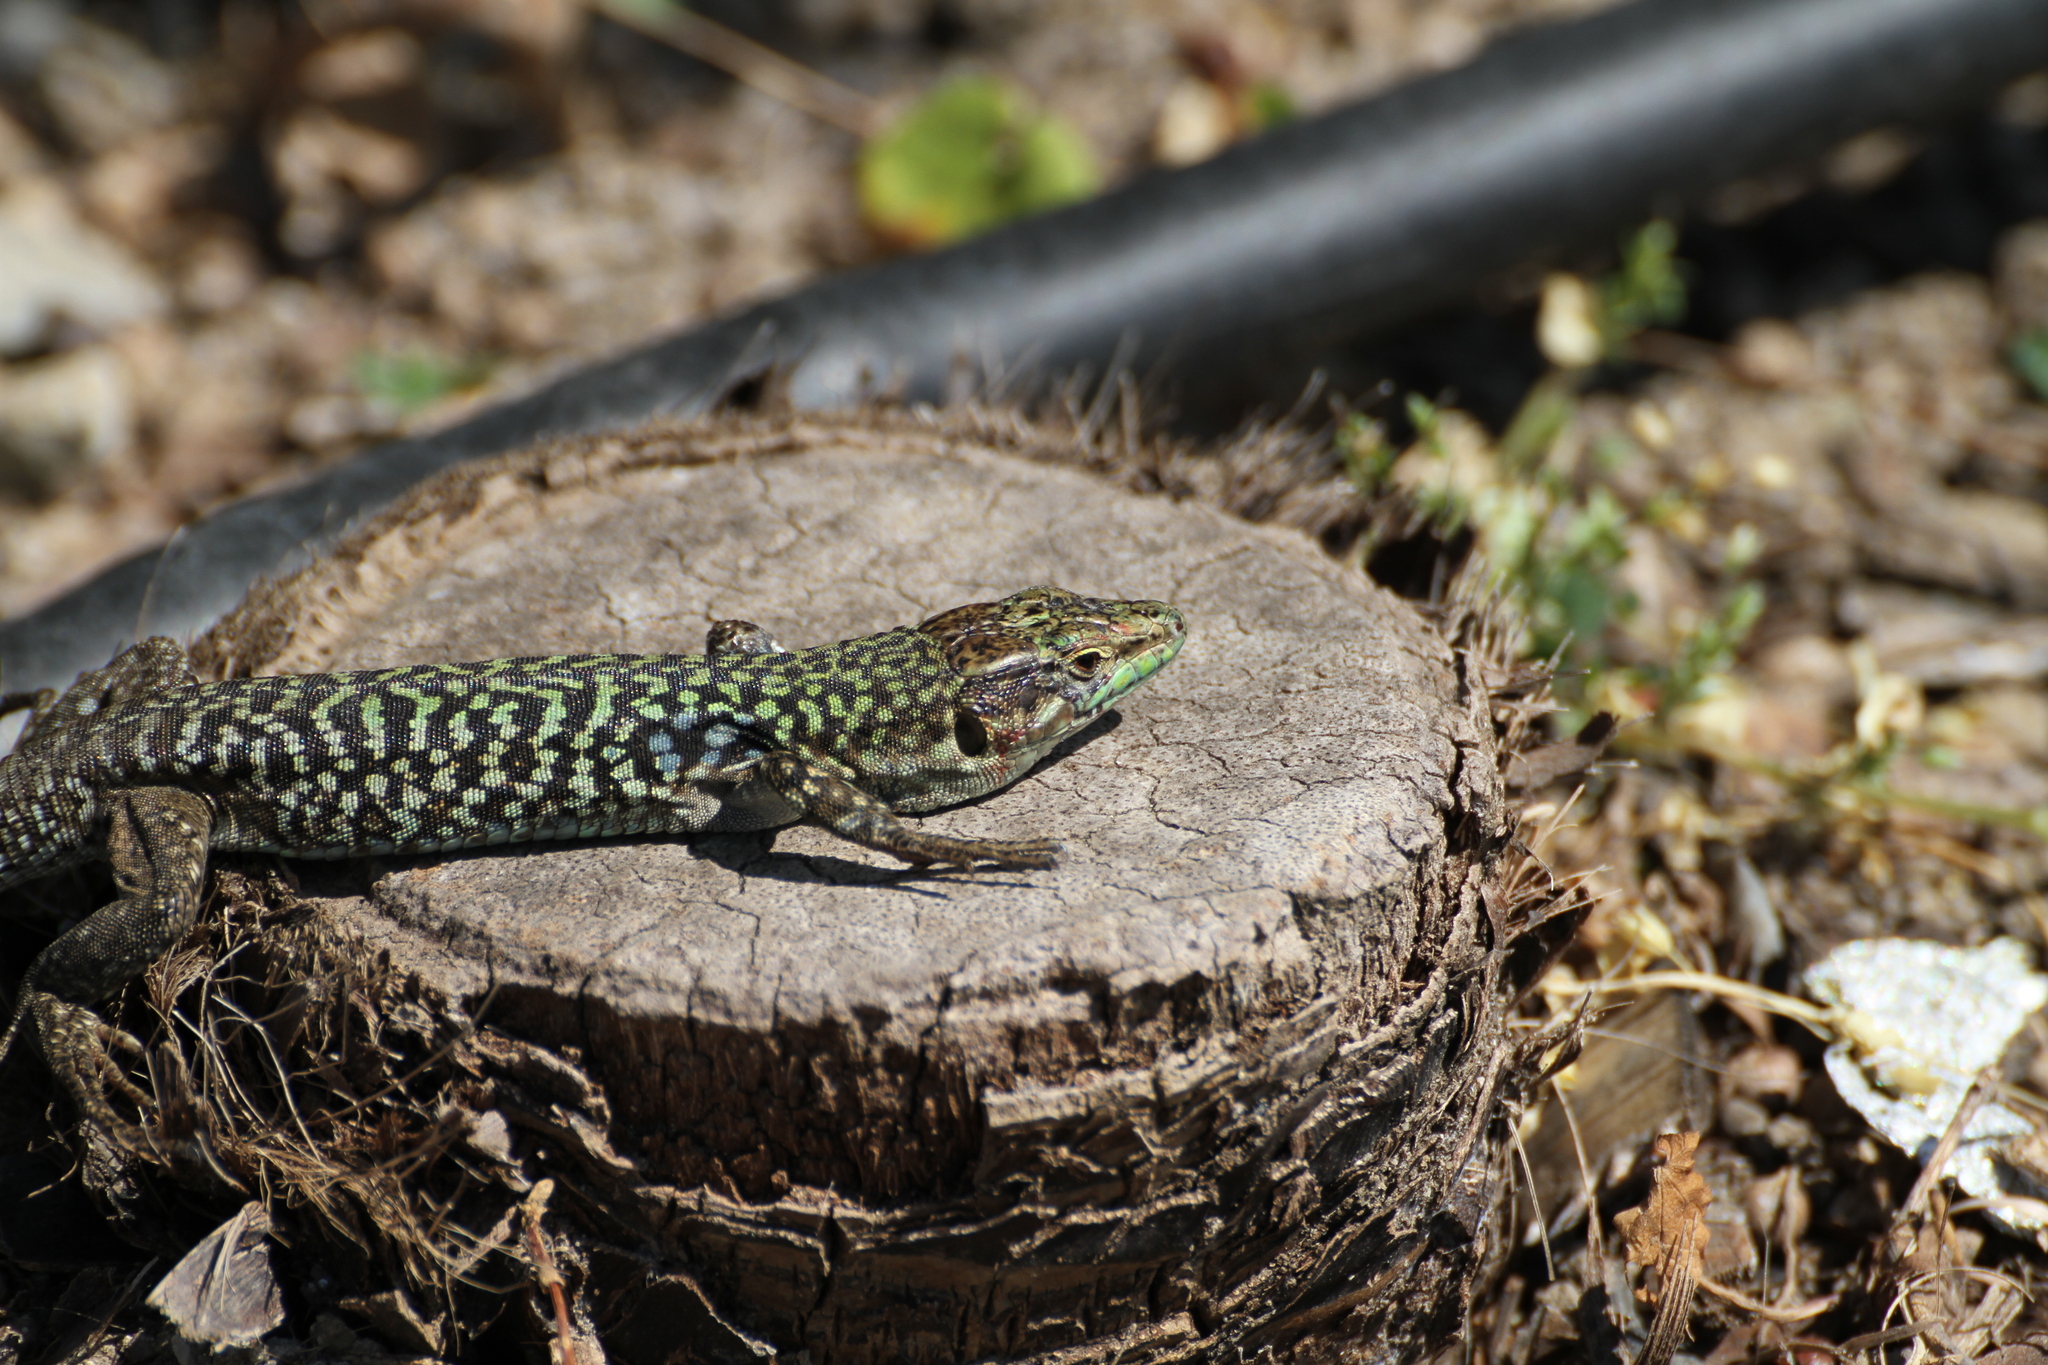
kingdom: Animalia
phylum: Chordata
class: Squamata
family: Lacertidae
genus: Podarcis
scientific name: Podarcis siculus
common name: Italian wall lizard
